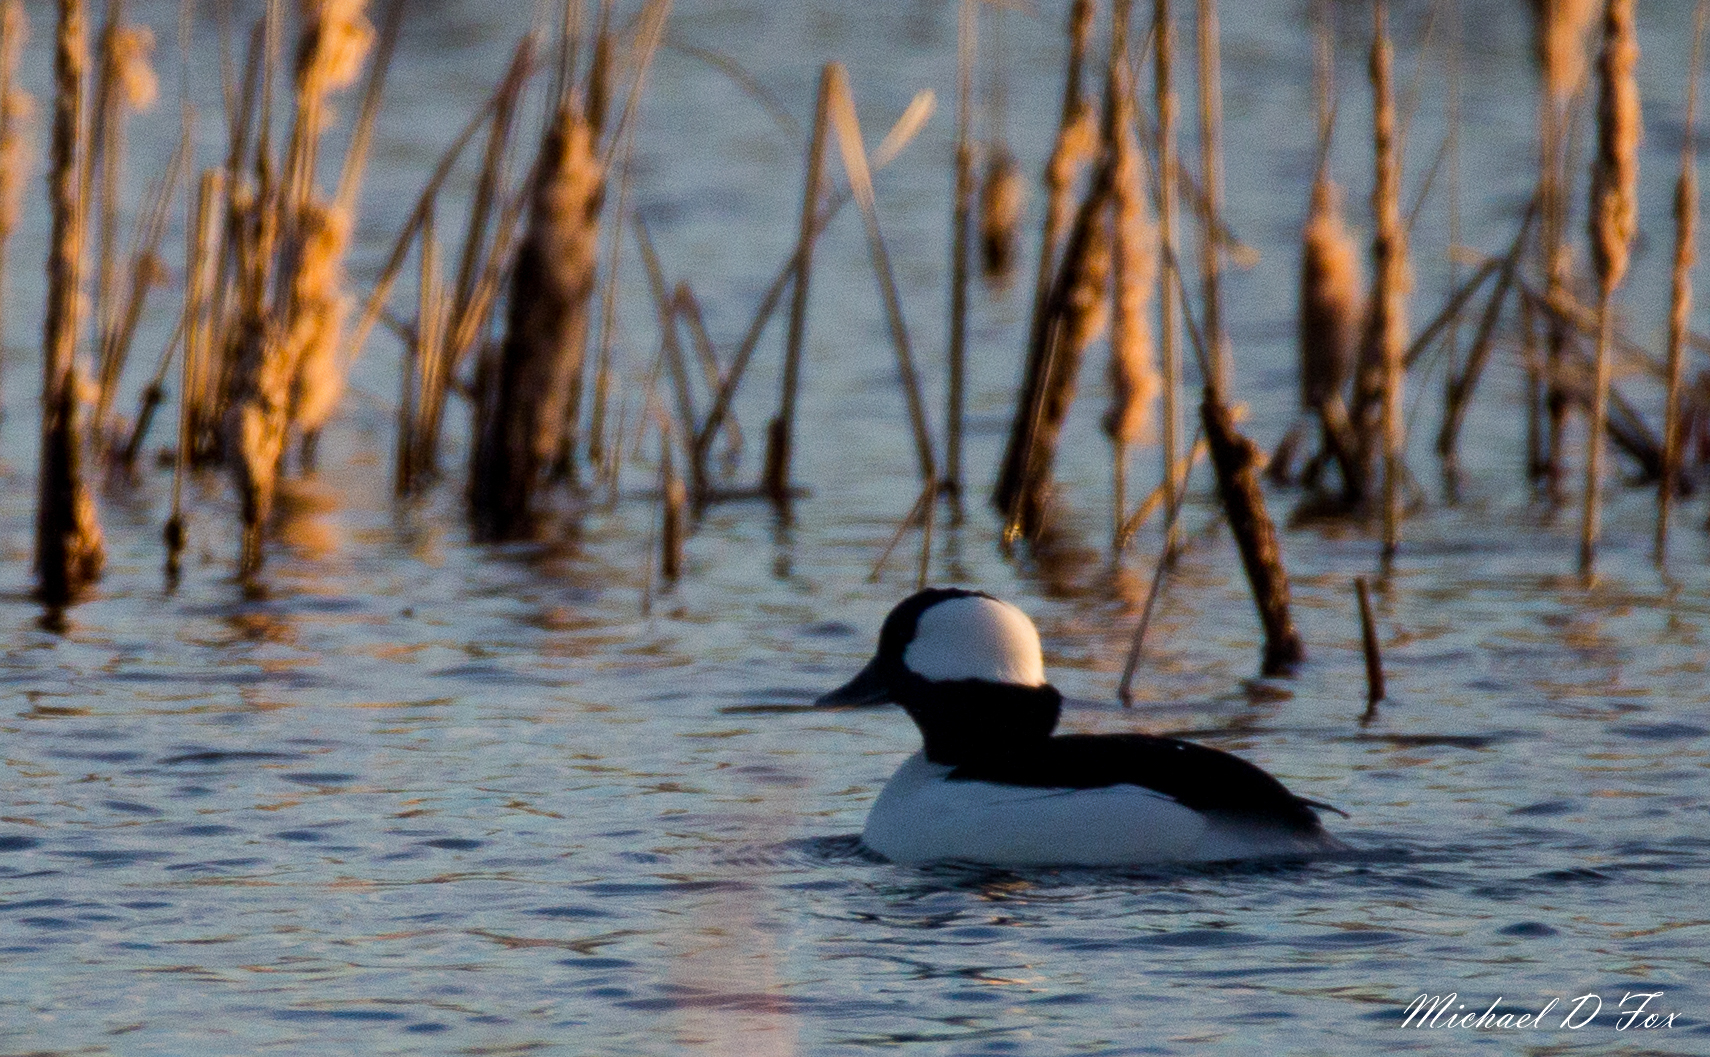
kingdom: Animalia
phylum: Chordata
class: Aves
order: Anseriformes
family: Anatidae
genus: Bucephala
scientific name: Bucephala albeola
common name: Bufflehead
